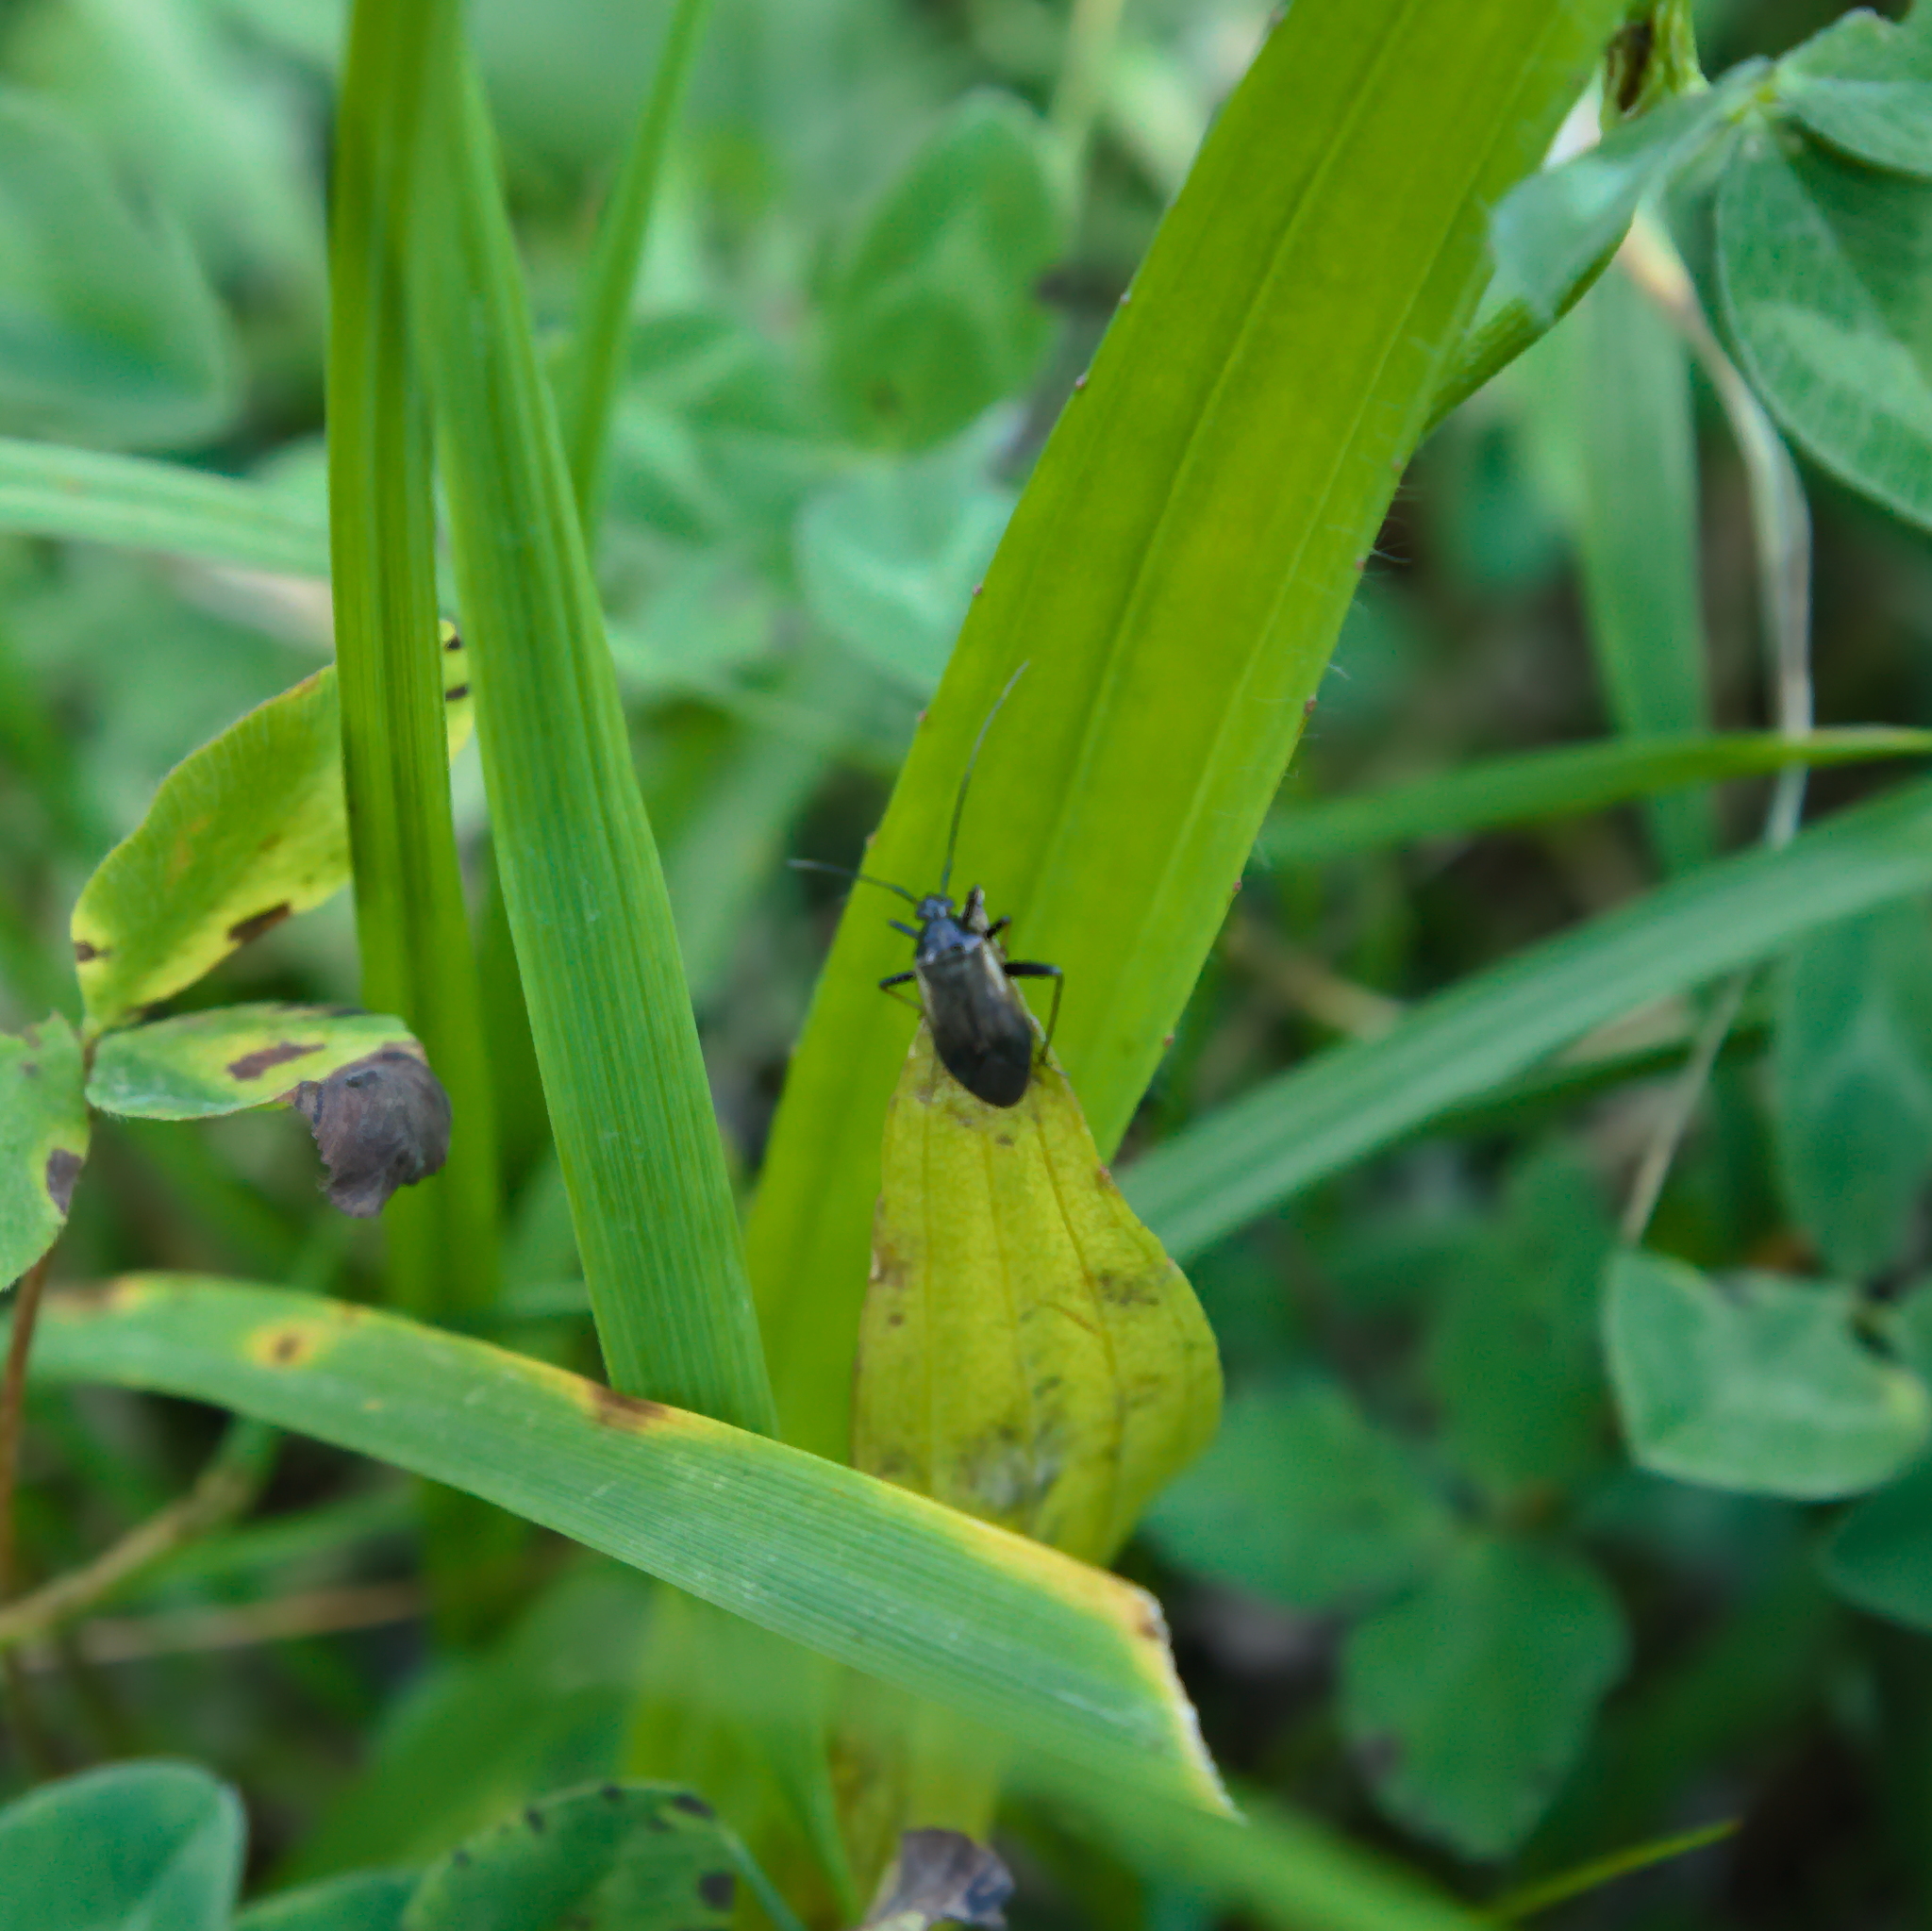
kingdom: Animalia
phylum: Arthropoda
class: Insecta
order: Hemiptera
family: Miridae
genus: Adelphocoris
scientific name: Adelphocoris seticornis
